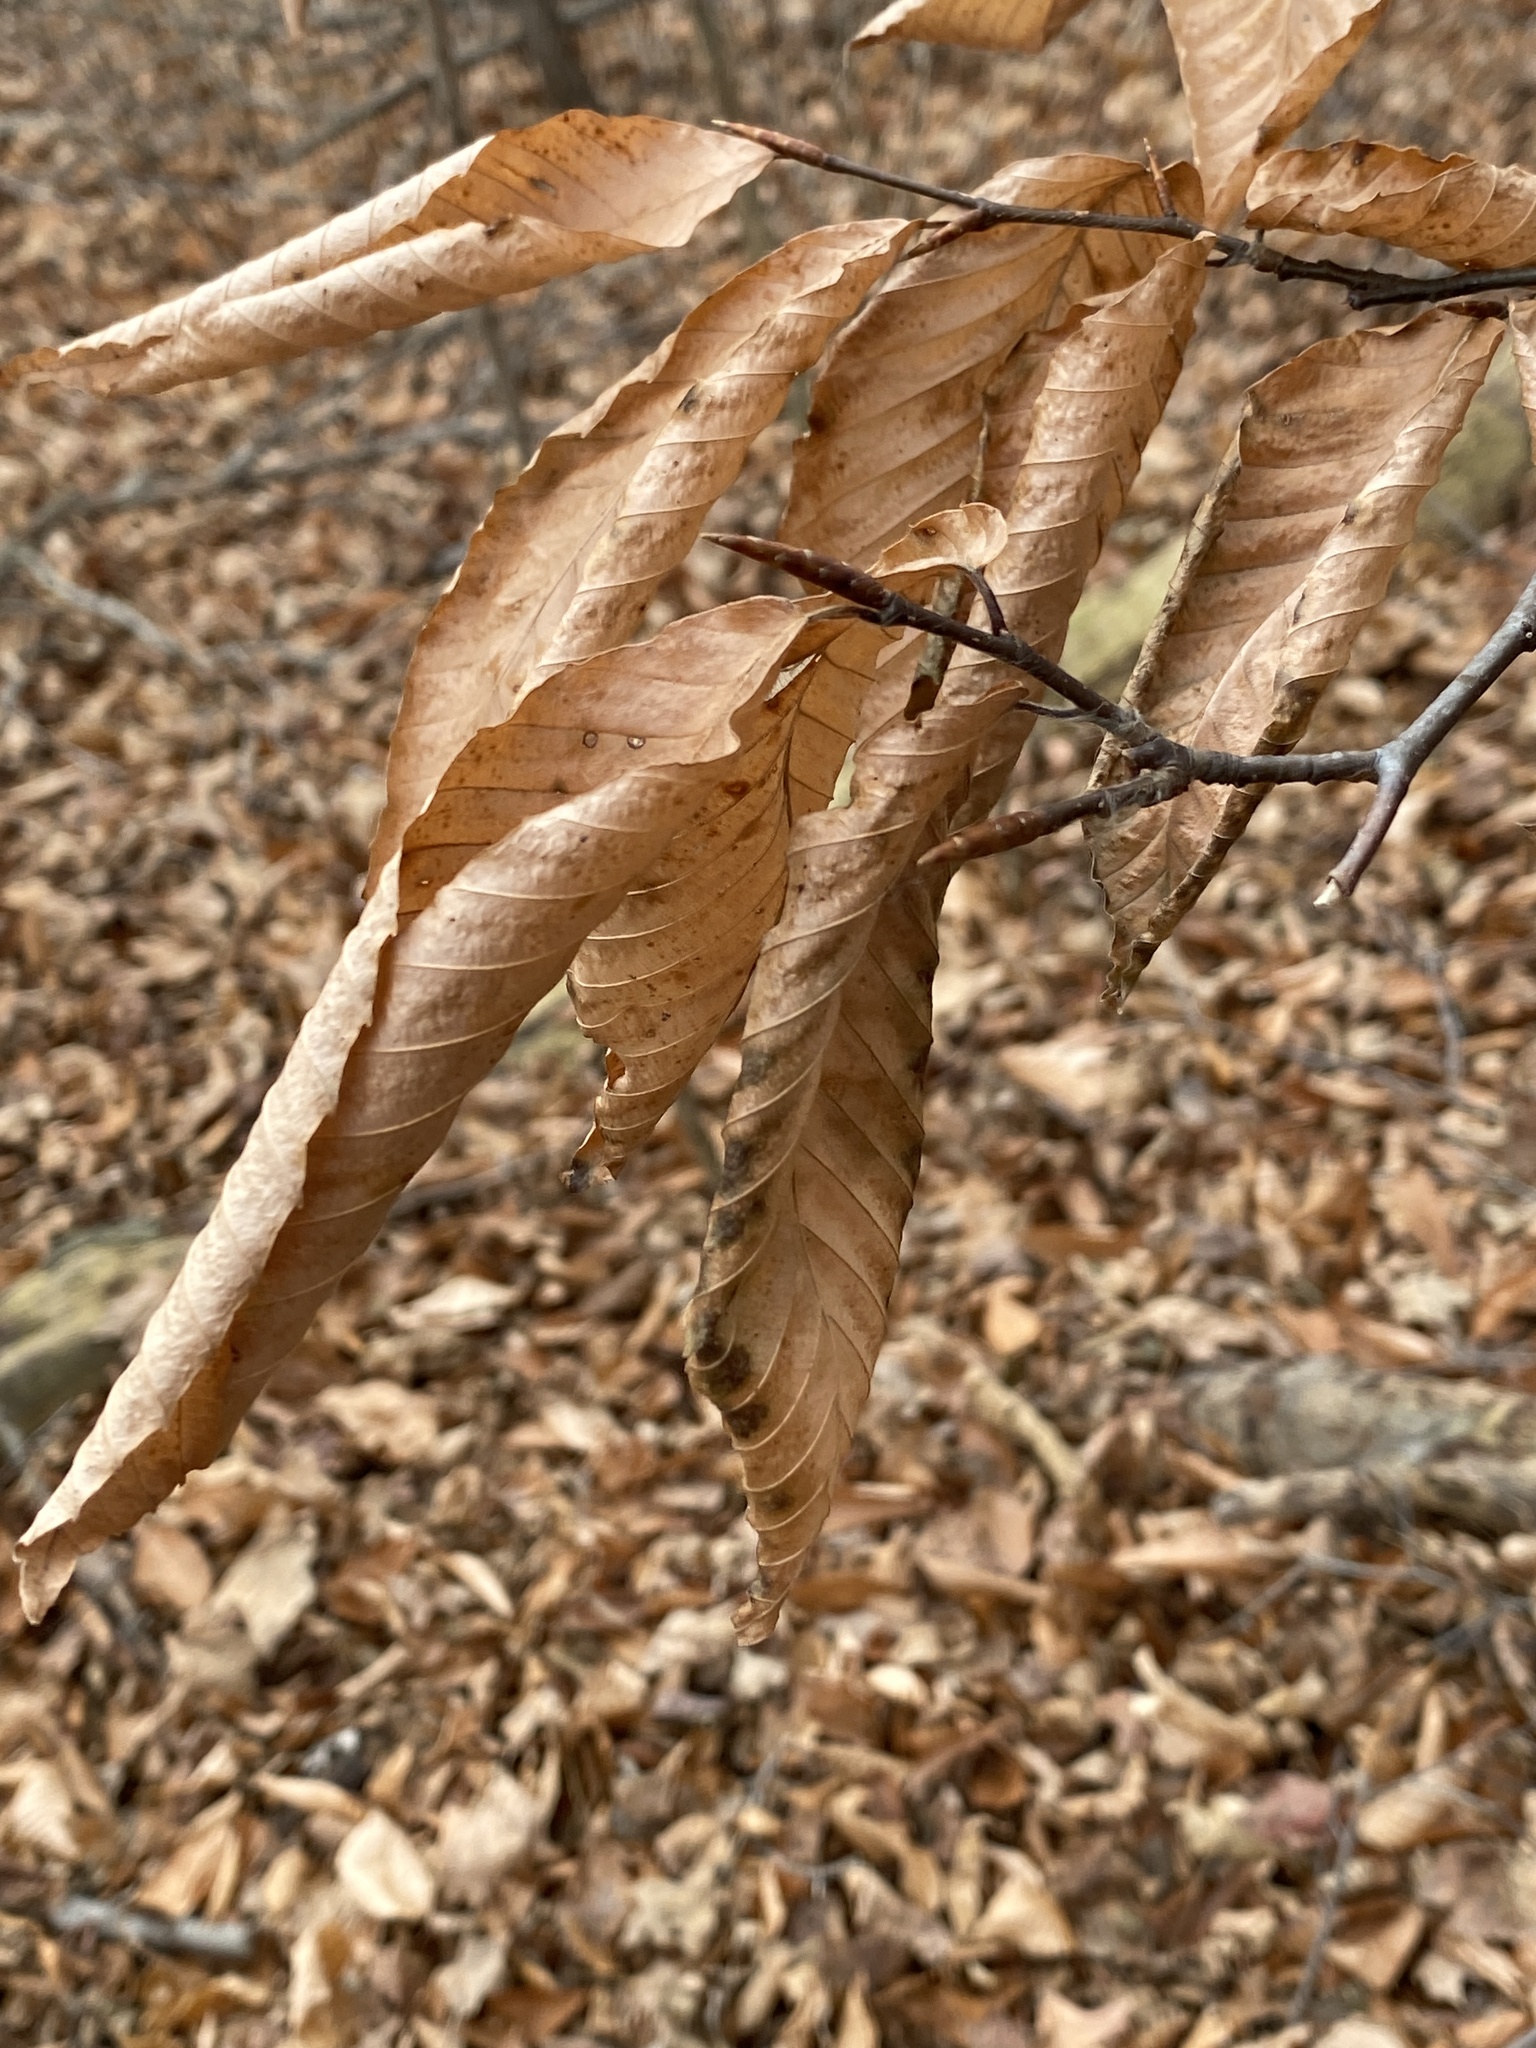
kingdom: Plantae
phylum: Tracheophyta
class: Magnoliopsida
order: Fagales
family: Fagaceae
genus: Fagus
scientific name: Fagus grandifolia
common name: American beech
